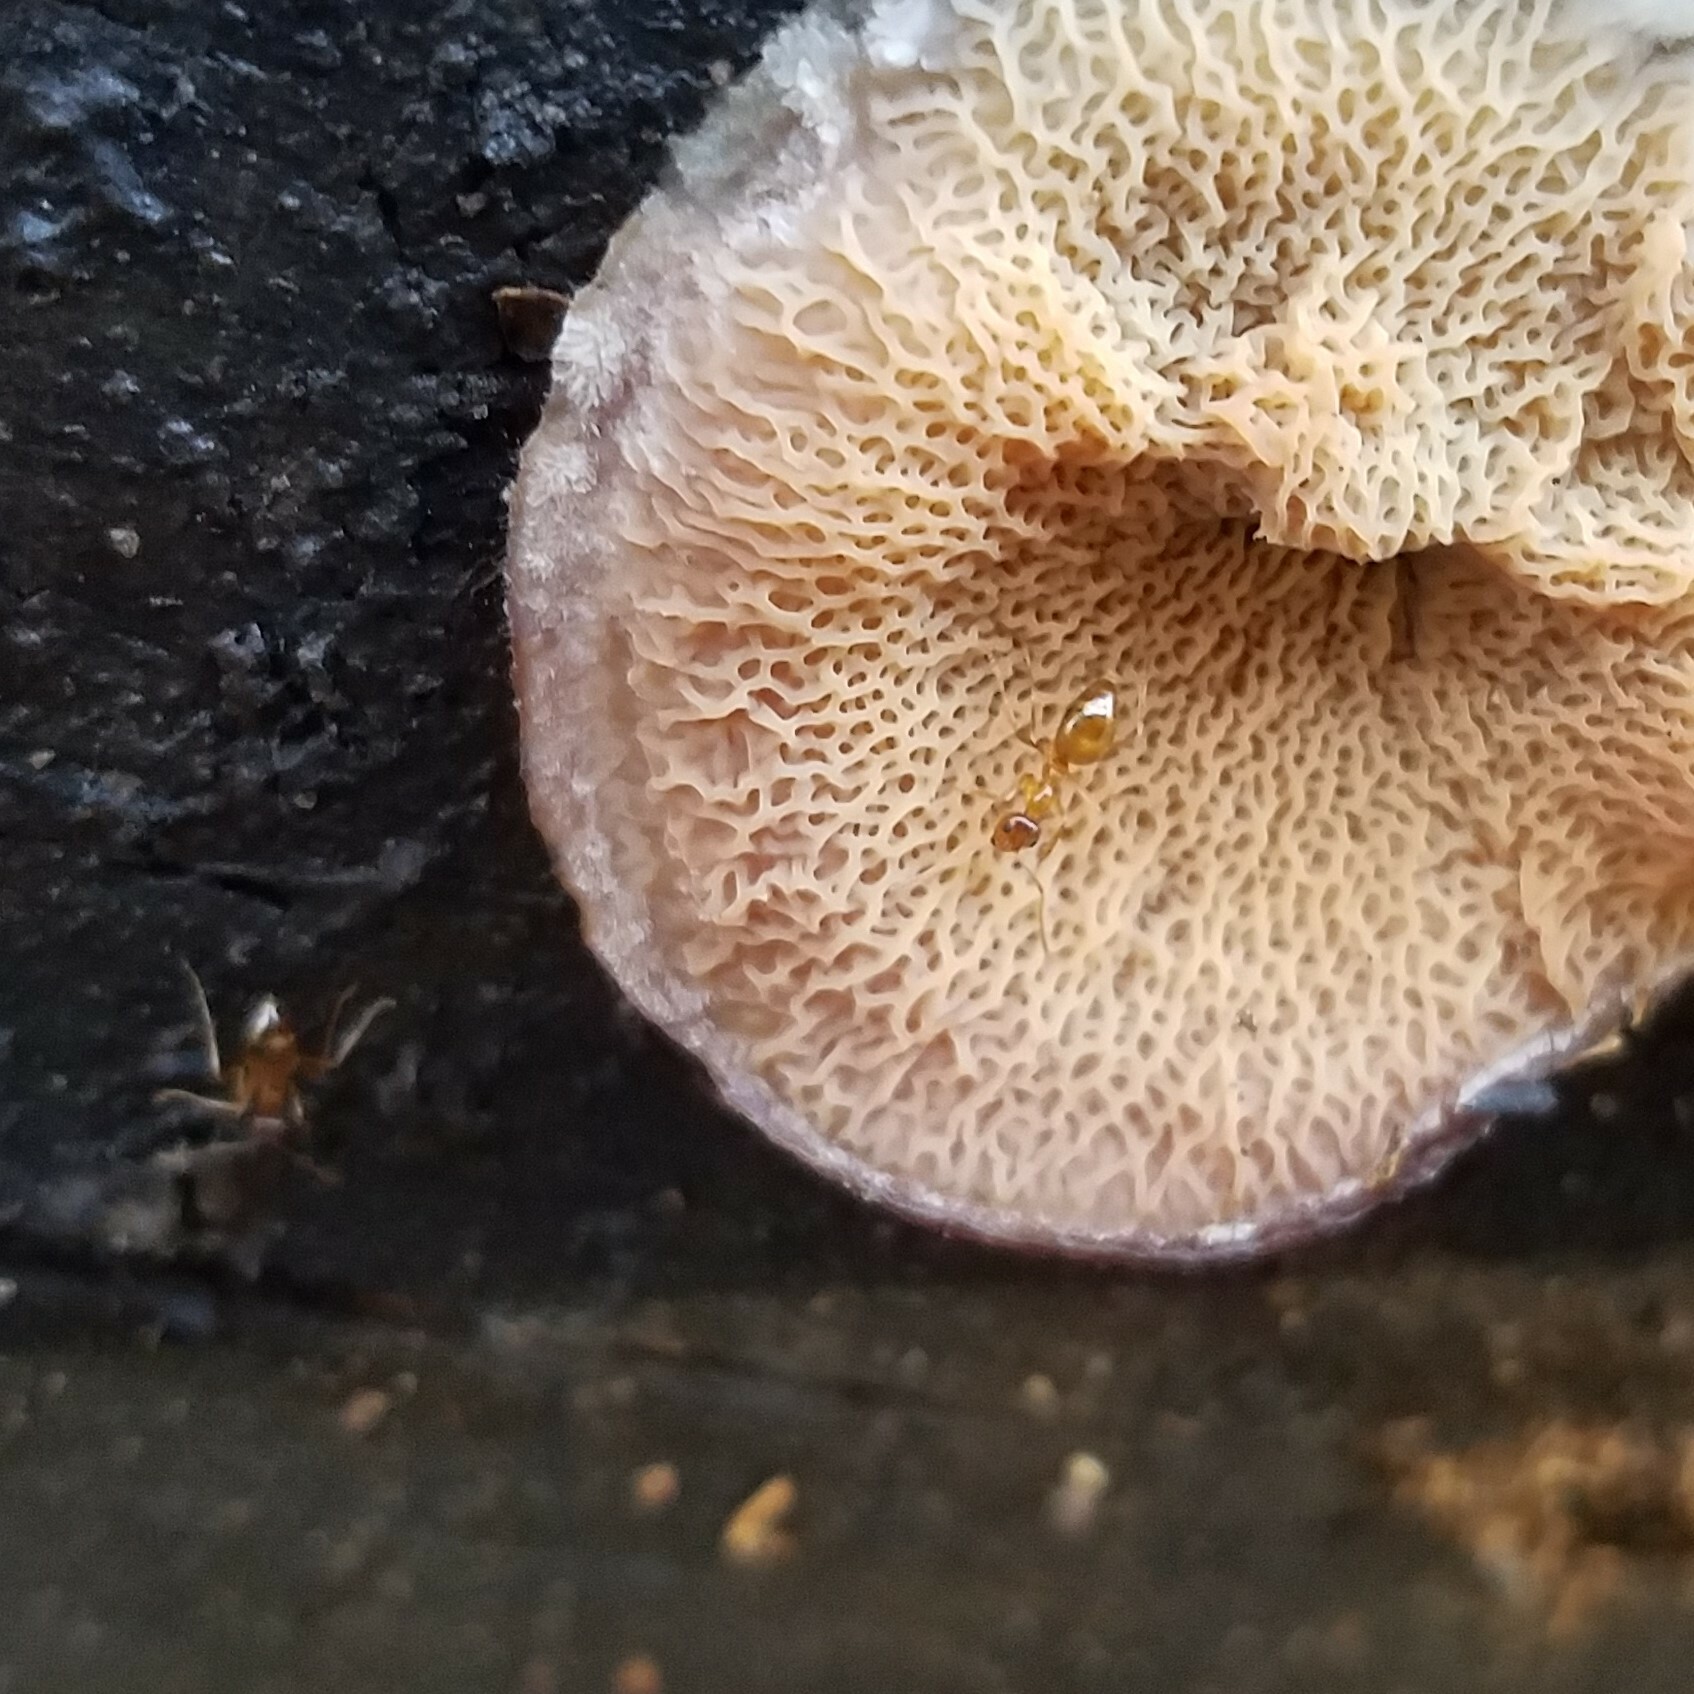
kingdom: Animalia
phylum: Arthropoda
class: Insecta
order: Hymenoptera
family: Formicidae
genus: Prenolepis
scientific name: Prenolepis imparis
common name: Small honey ant
